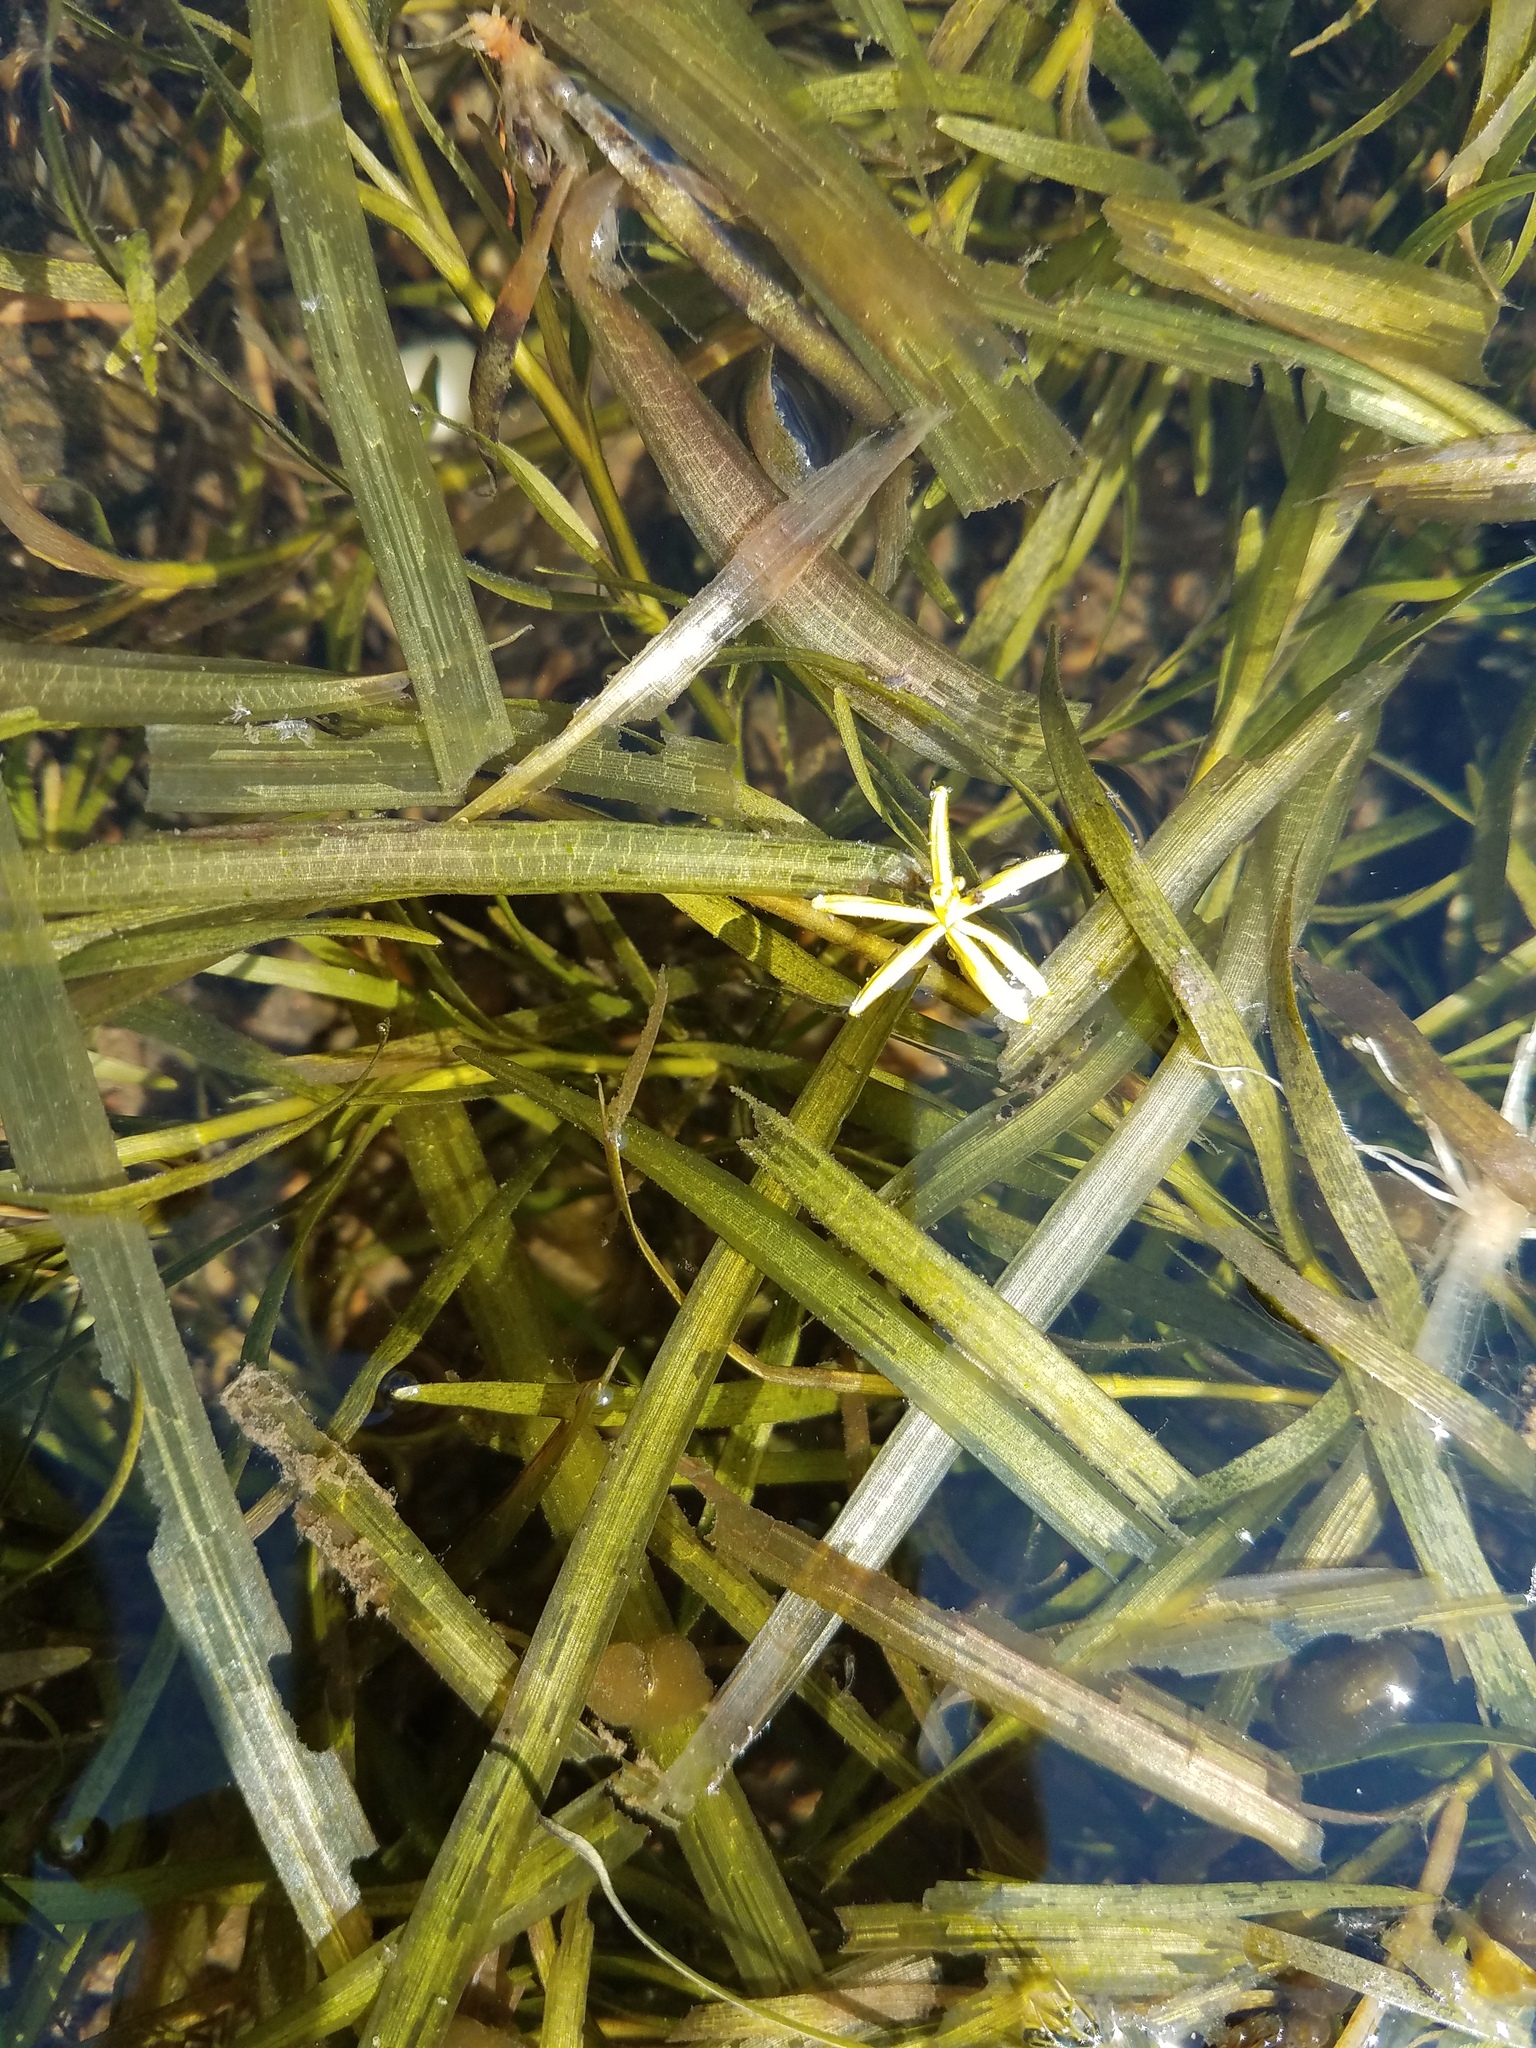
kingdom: Plantae
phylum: Tracheophyta
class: Liliopsida
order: Commelinales
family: Pontederiaceae
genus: Heteranthera
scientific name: Heteranthera dubia
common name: Grass-leaved mud plantain
